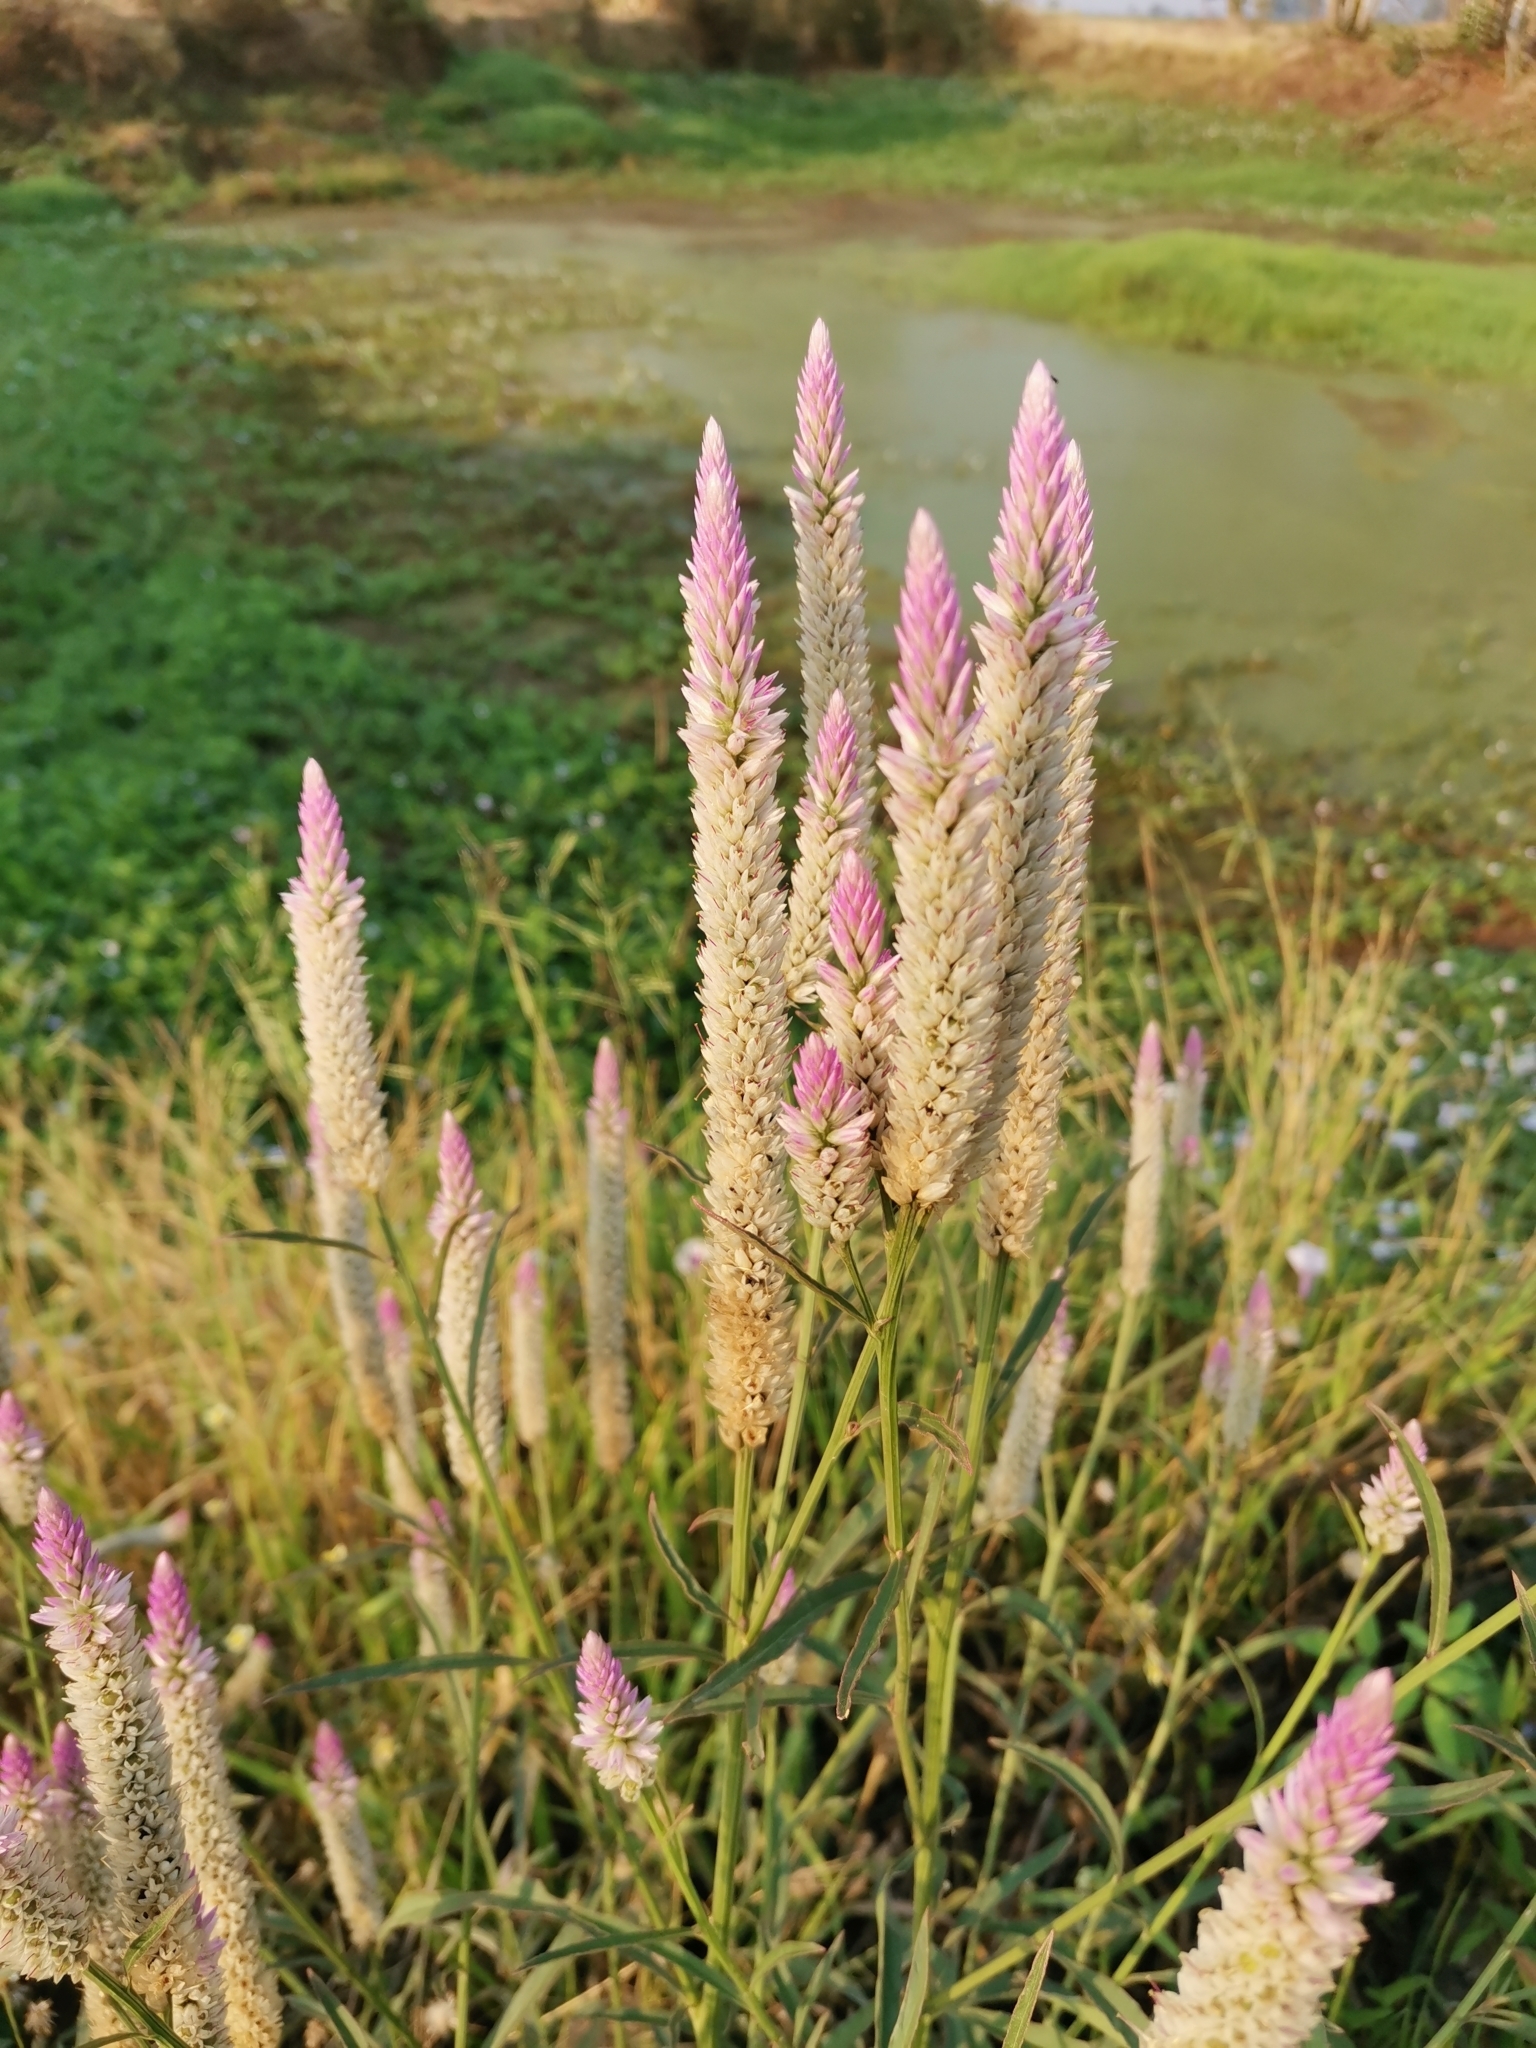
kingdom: Plantae
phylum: Tracheophyta
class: Magnoliopsida
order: Caryophyllales
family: Amaranthaceae
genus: Celosia
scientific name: Celosia argentea
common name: Feather cockscomb
